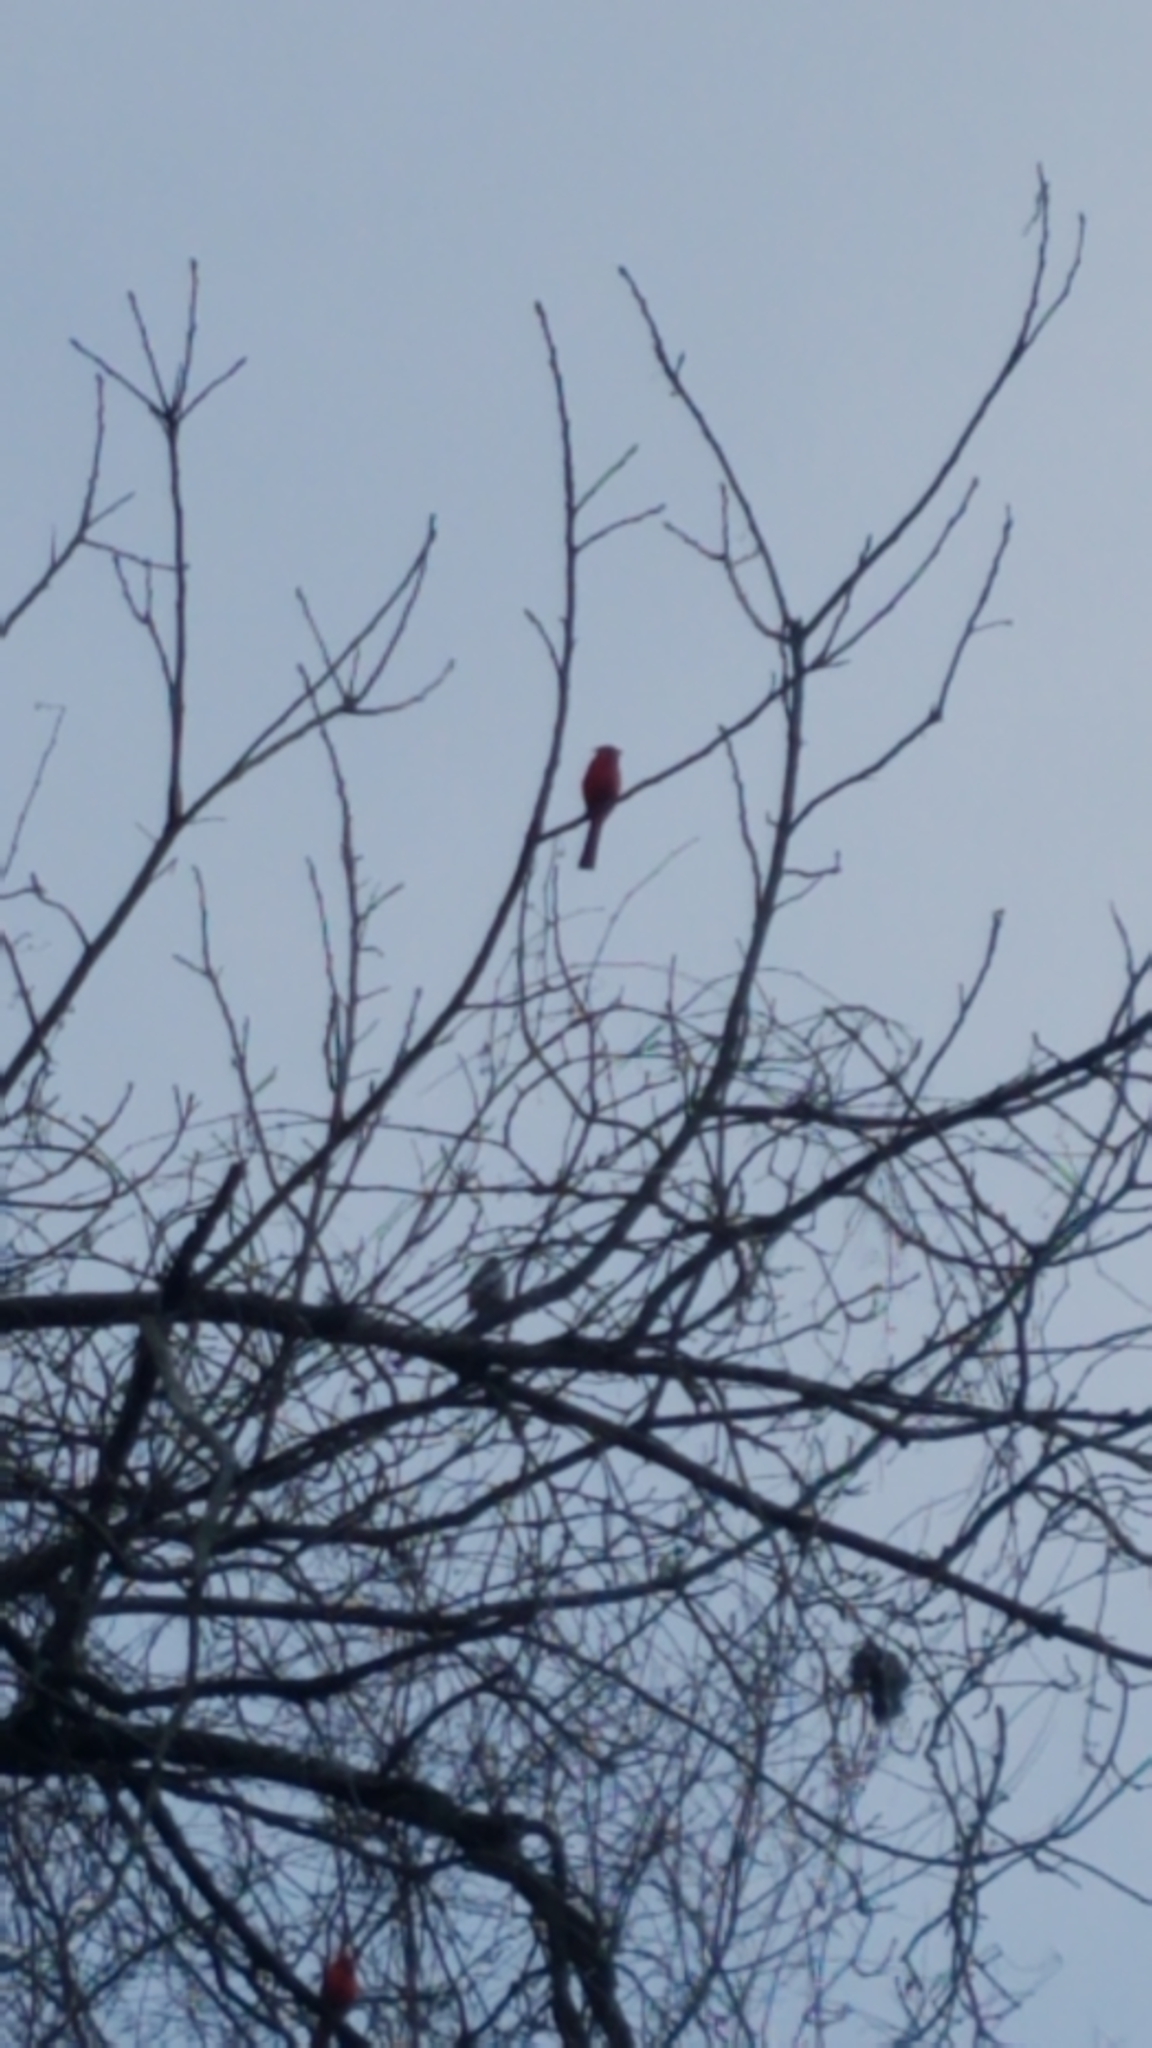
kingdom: Animalia
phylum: Chordata
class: Aves
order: Passeriformes
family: Cardinalidae
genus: Cardinalis
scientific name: Cardinalis cardinalis
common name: Northern cardinal
